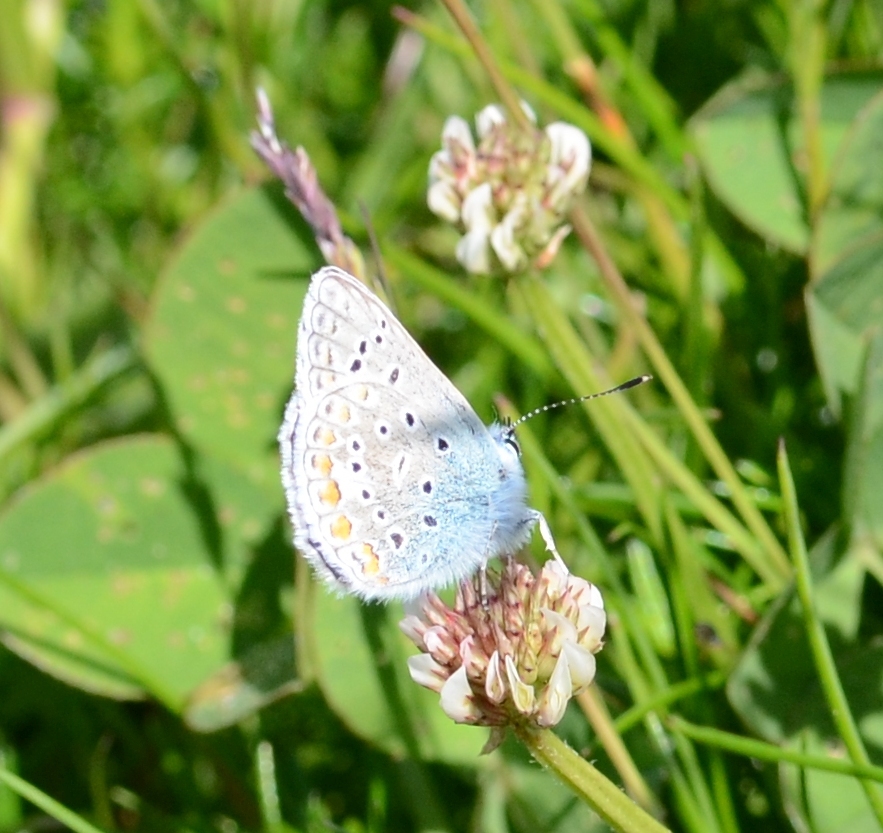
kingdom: Animalia
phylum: Arthropoda
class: Insecta
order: Lepidoptera
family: Lycaenidae
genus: Polyommatus
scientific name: Polyommatus icarus
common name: Common blue
